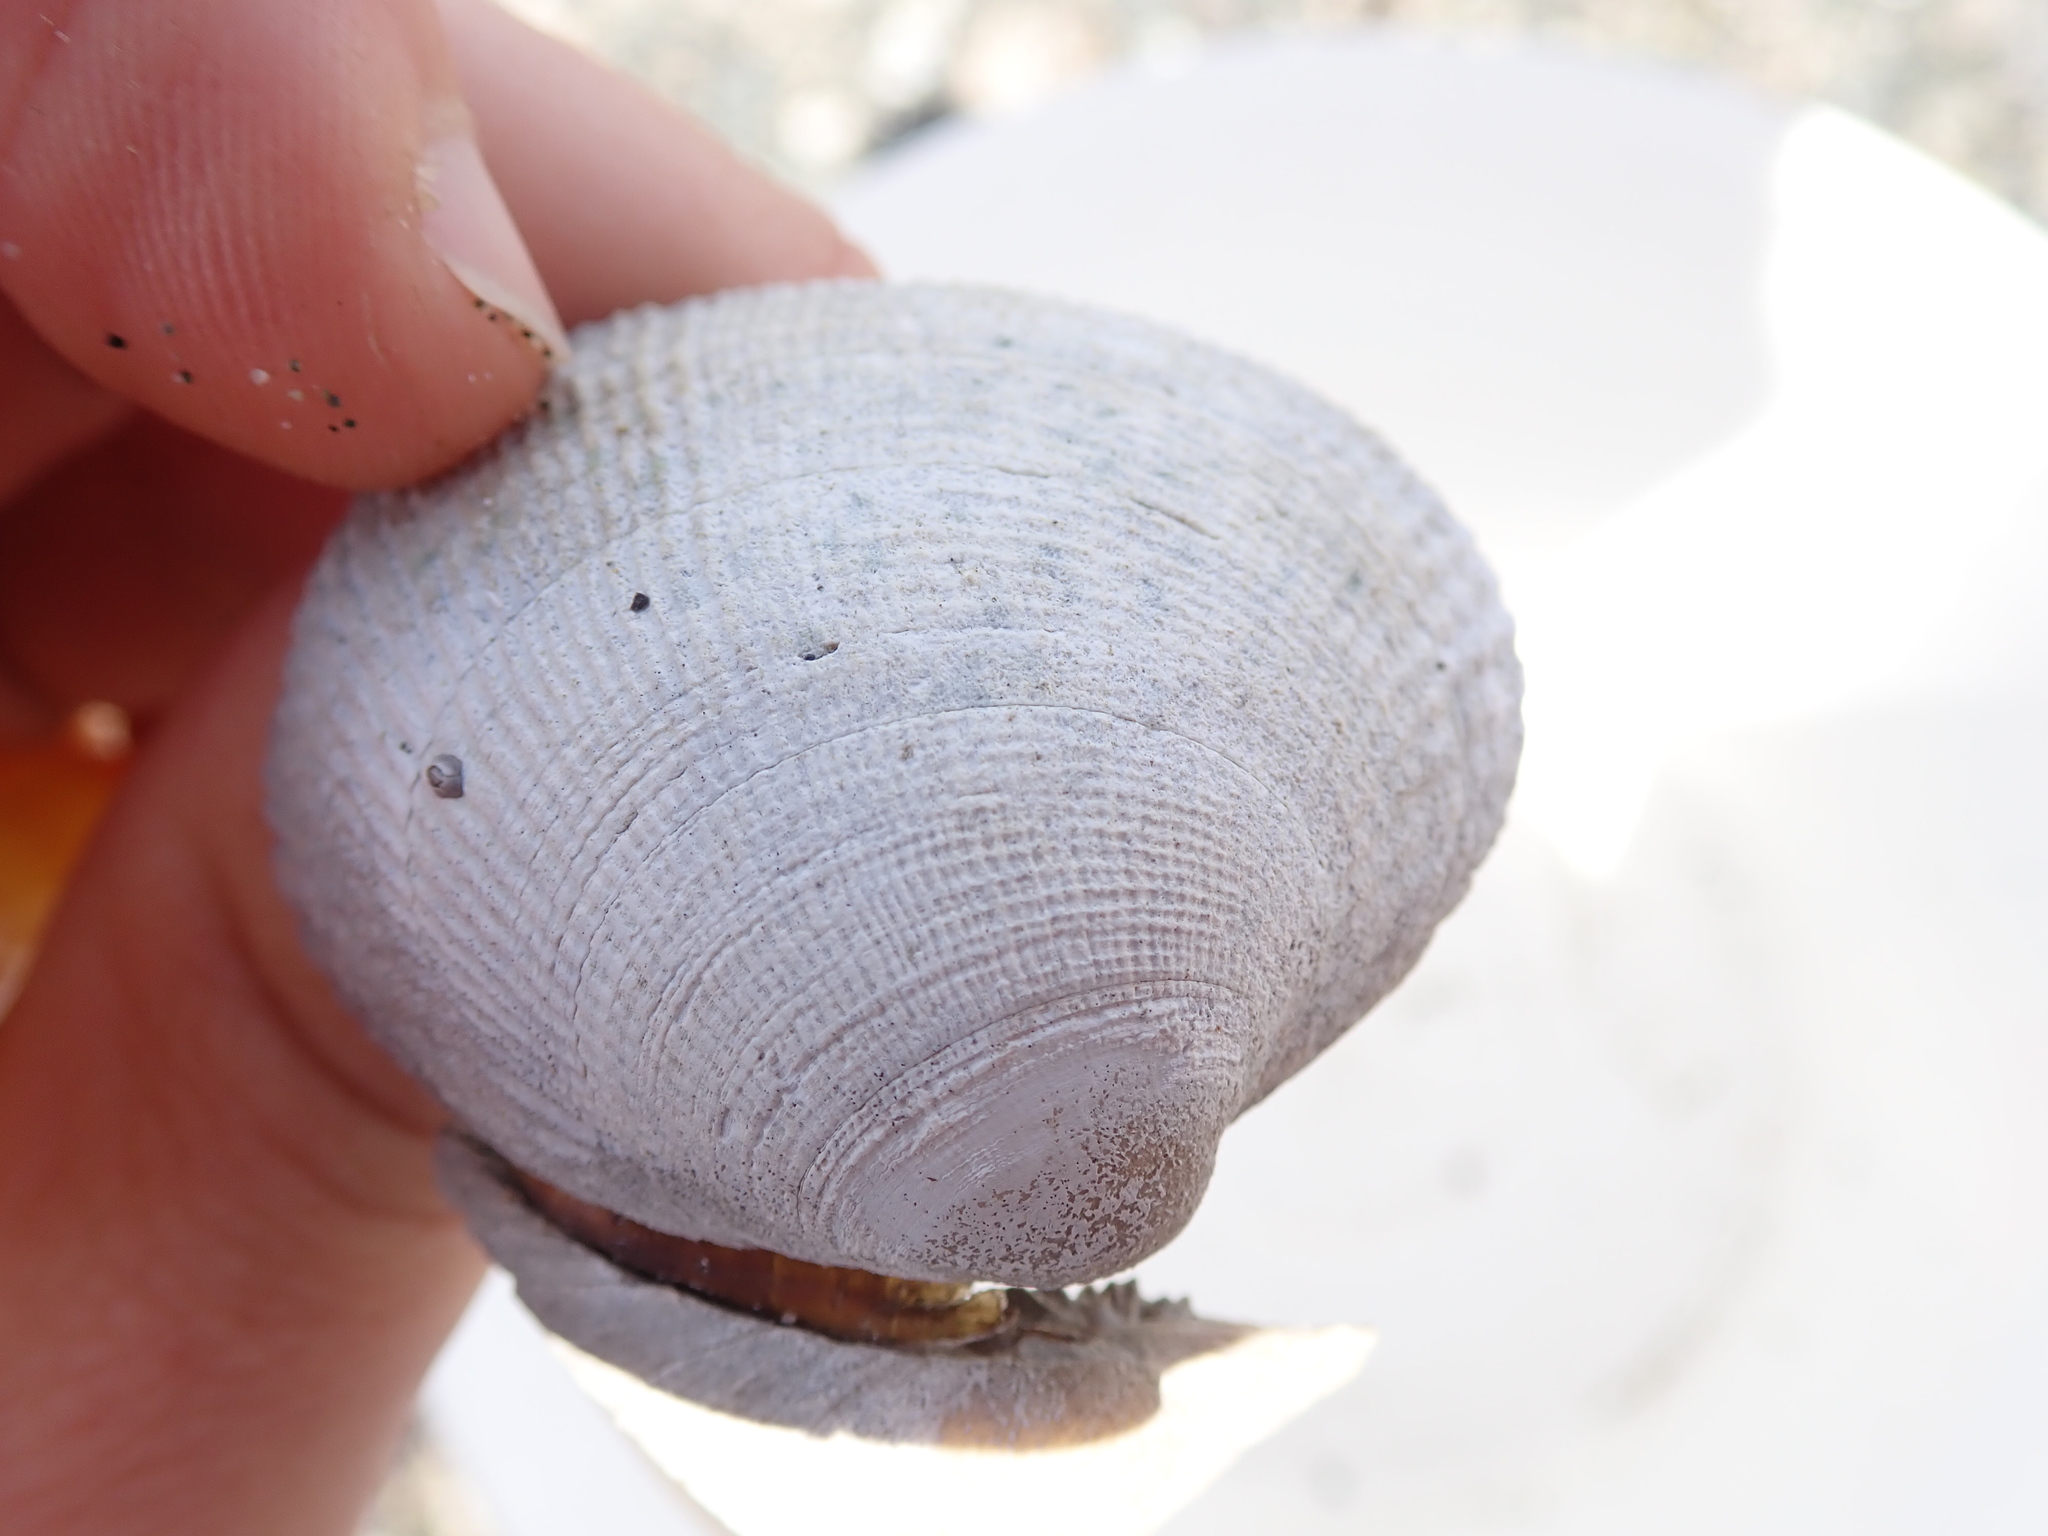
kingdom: Animalia
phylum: Mollusca
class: Bivalvia
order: Venerida
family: Veneridae
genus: Leukoma
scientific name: Leukoma staminea
